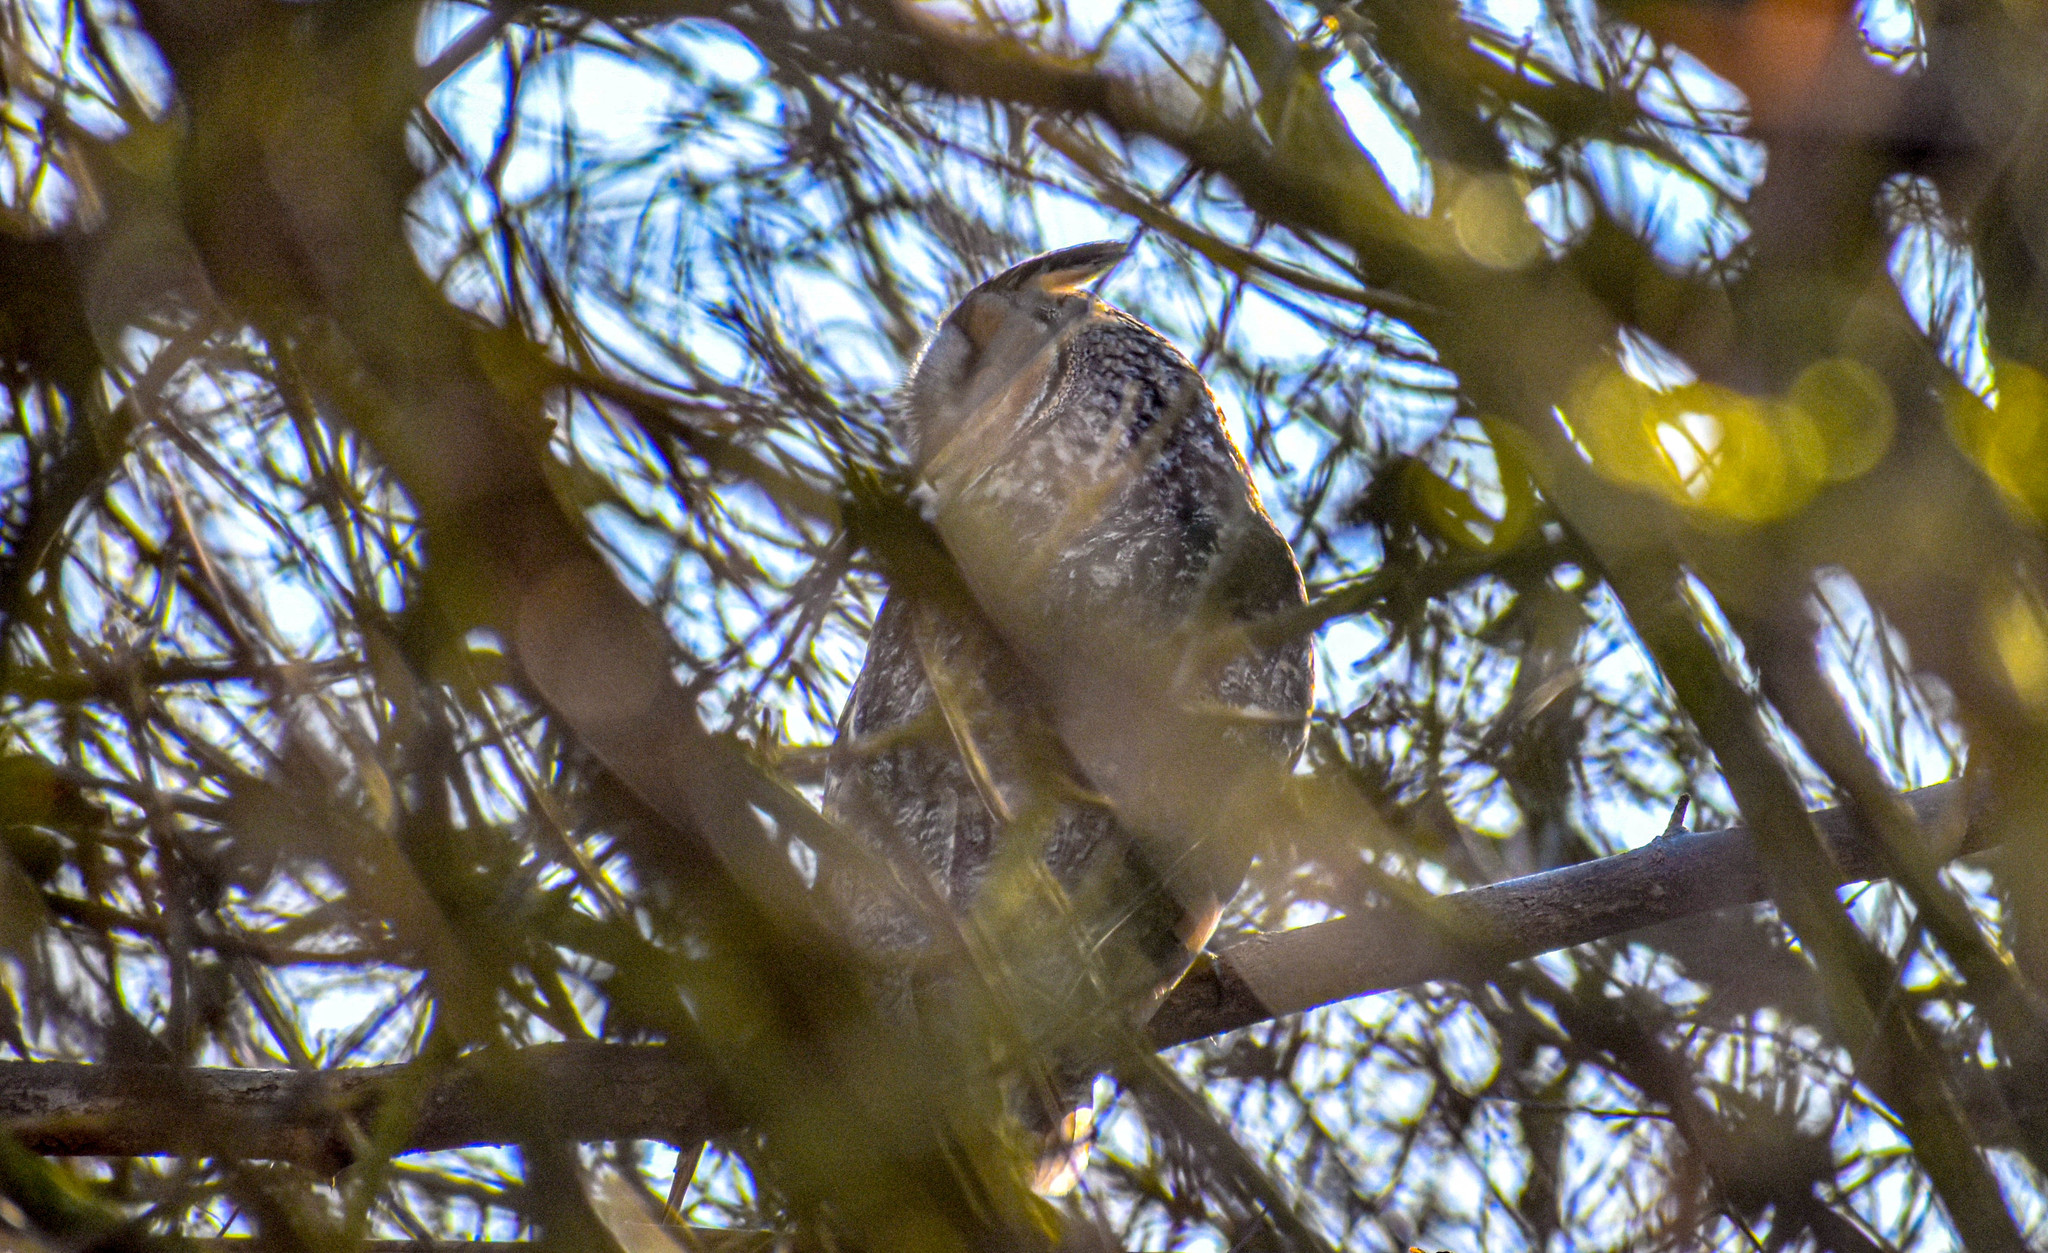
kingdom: Animalia
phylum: Chordata
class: Aves
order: Strigiformes
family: Strigidae
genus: Asio
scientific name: Asio otus
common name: Long-eared owl
